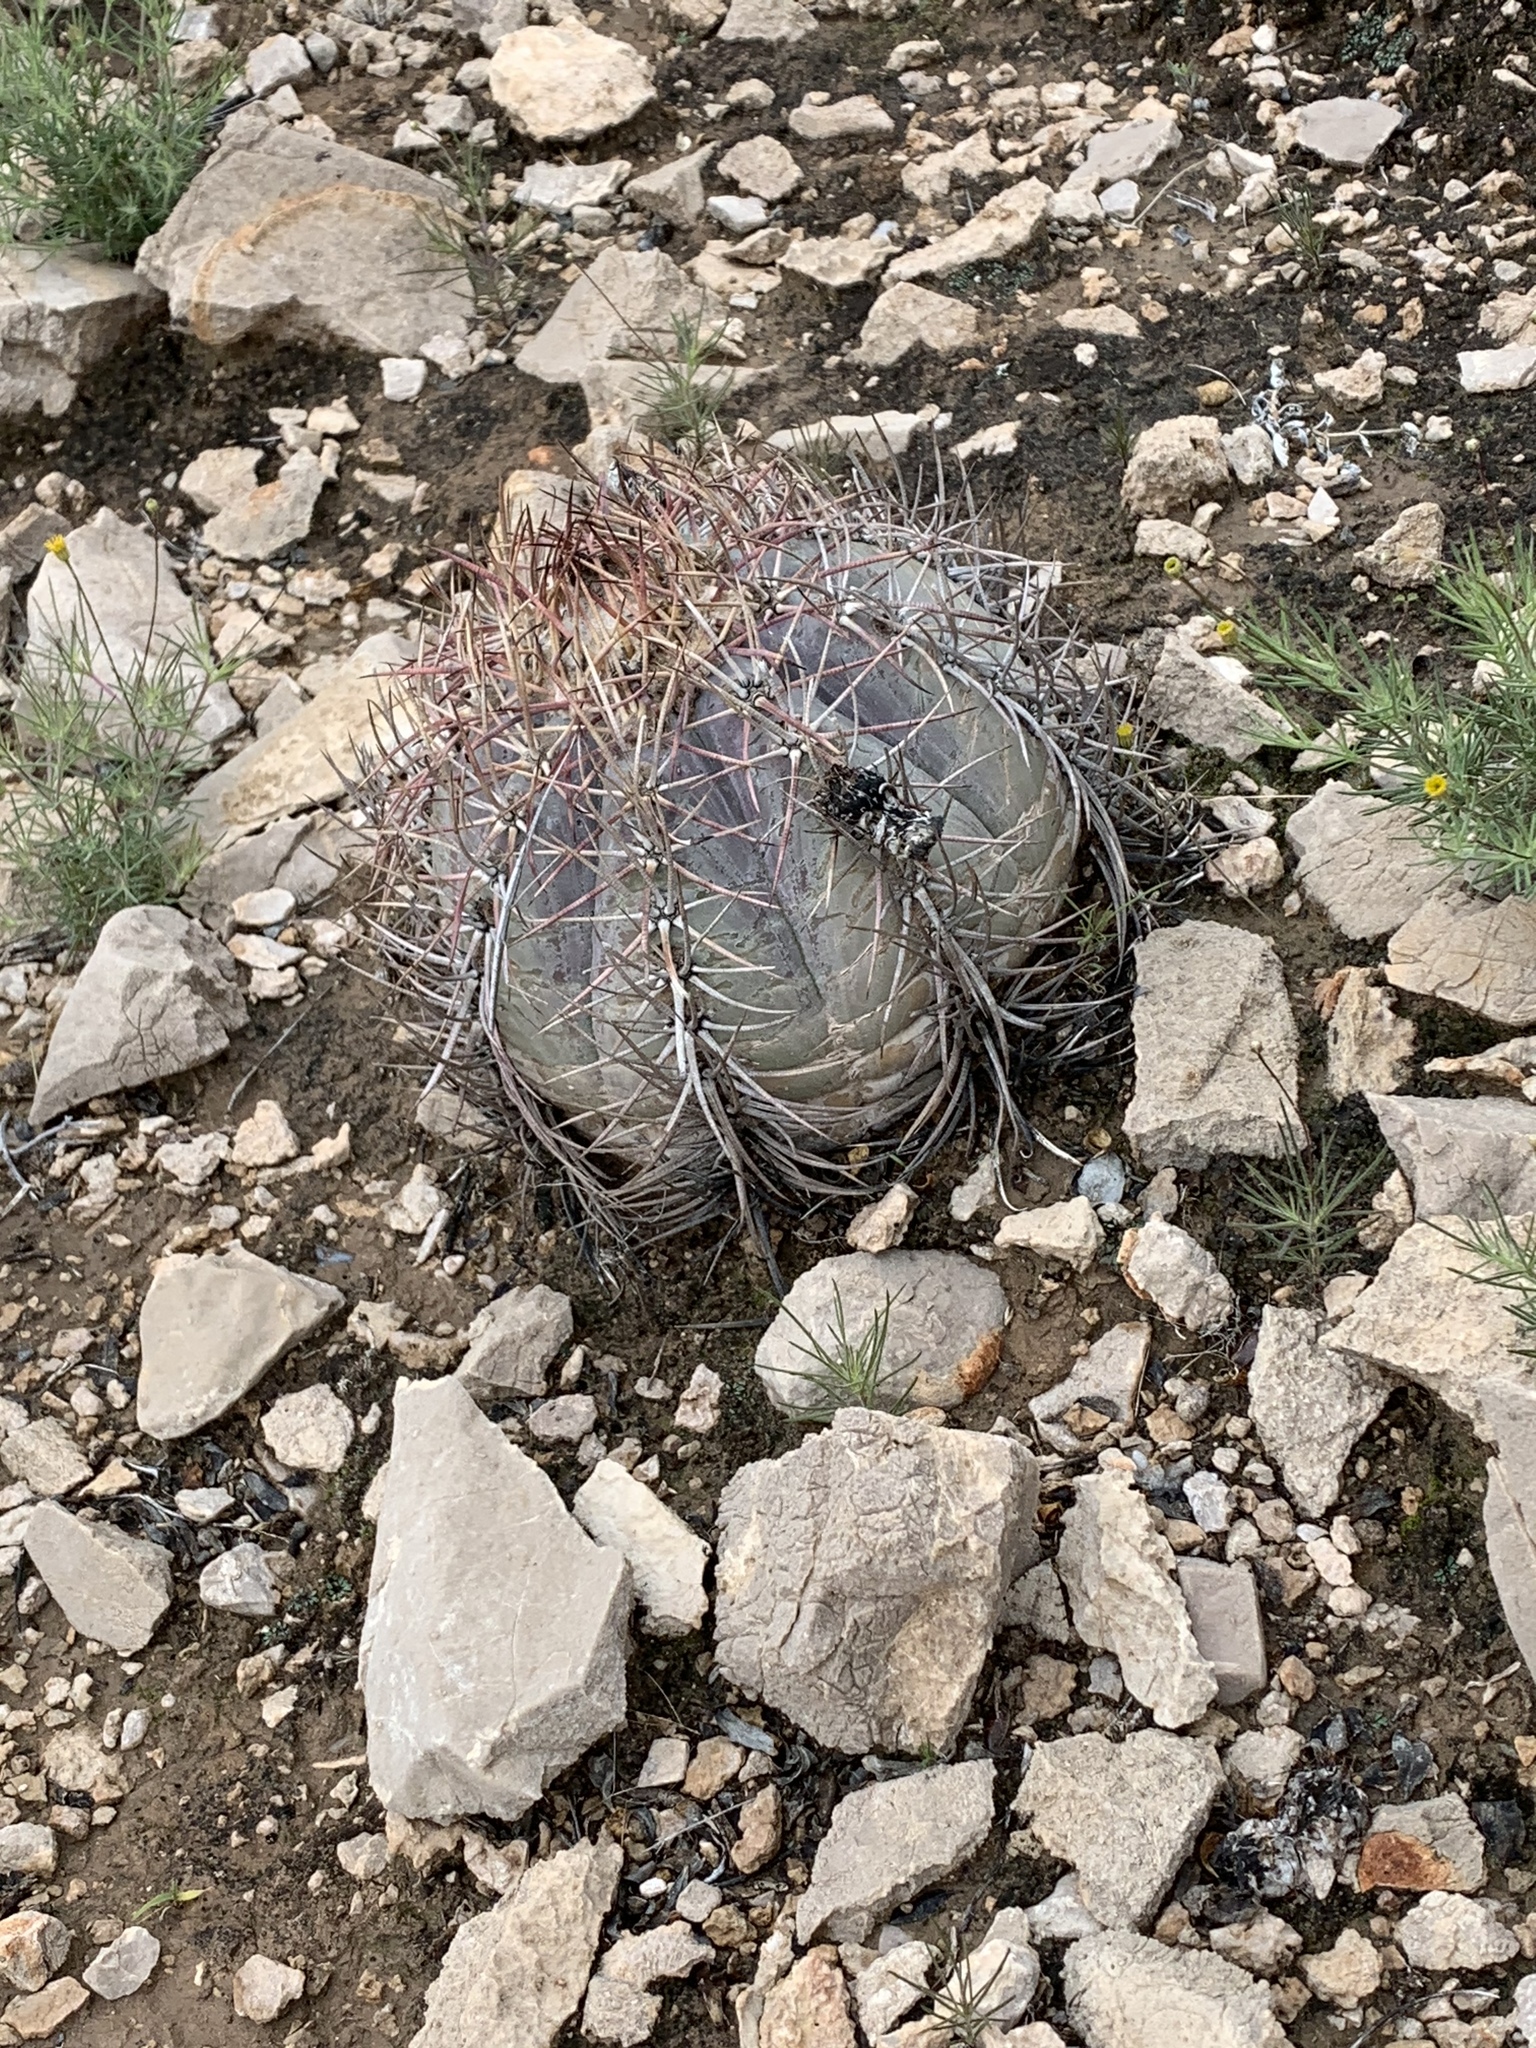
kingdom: Plantae
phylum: Tracheophyta
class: Magnoliopsida
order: Caryophyllales
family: Cactaceae
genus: Echinocactus
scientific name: Echinocactus horizonthalonius
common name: Devilshead
